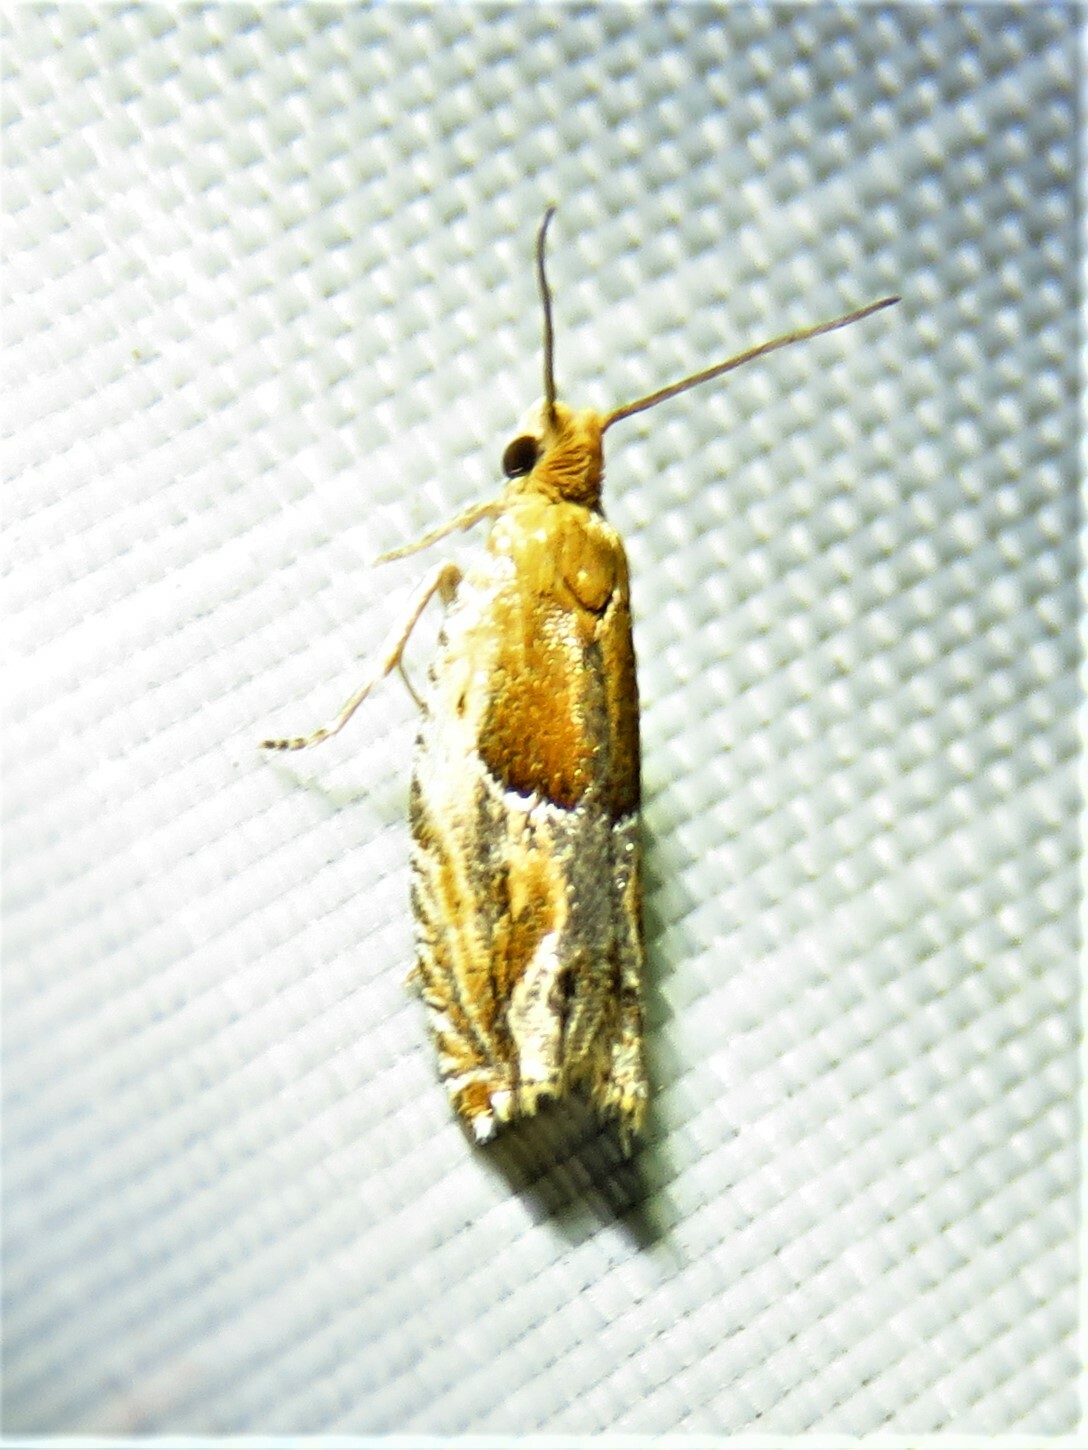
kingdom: Animalia
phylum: Arthropoda
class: Insecta
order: Lepidoptera
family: Tortricidae
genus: Ancylis
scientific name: Ancylis comptana
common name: Little roller
